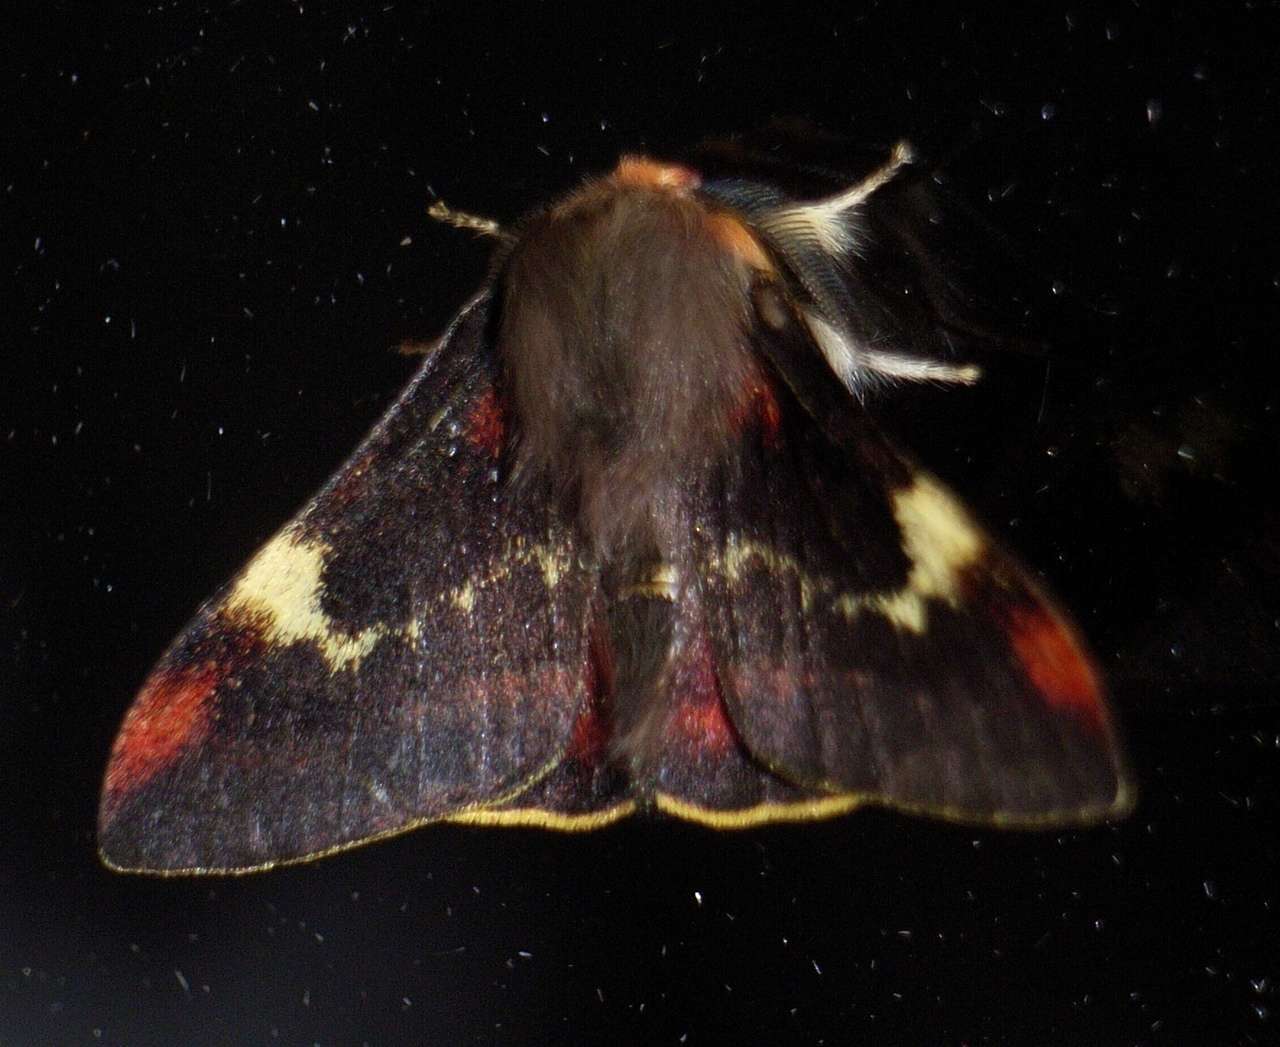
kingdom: Animalia
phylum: Arthropoda
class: Insecta
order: Lepidoptera
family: Anthelidae
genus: Nataxa
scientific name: Nataxa flavescens
